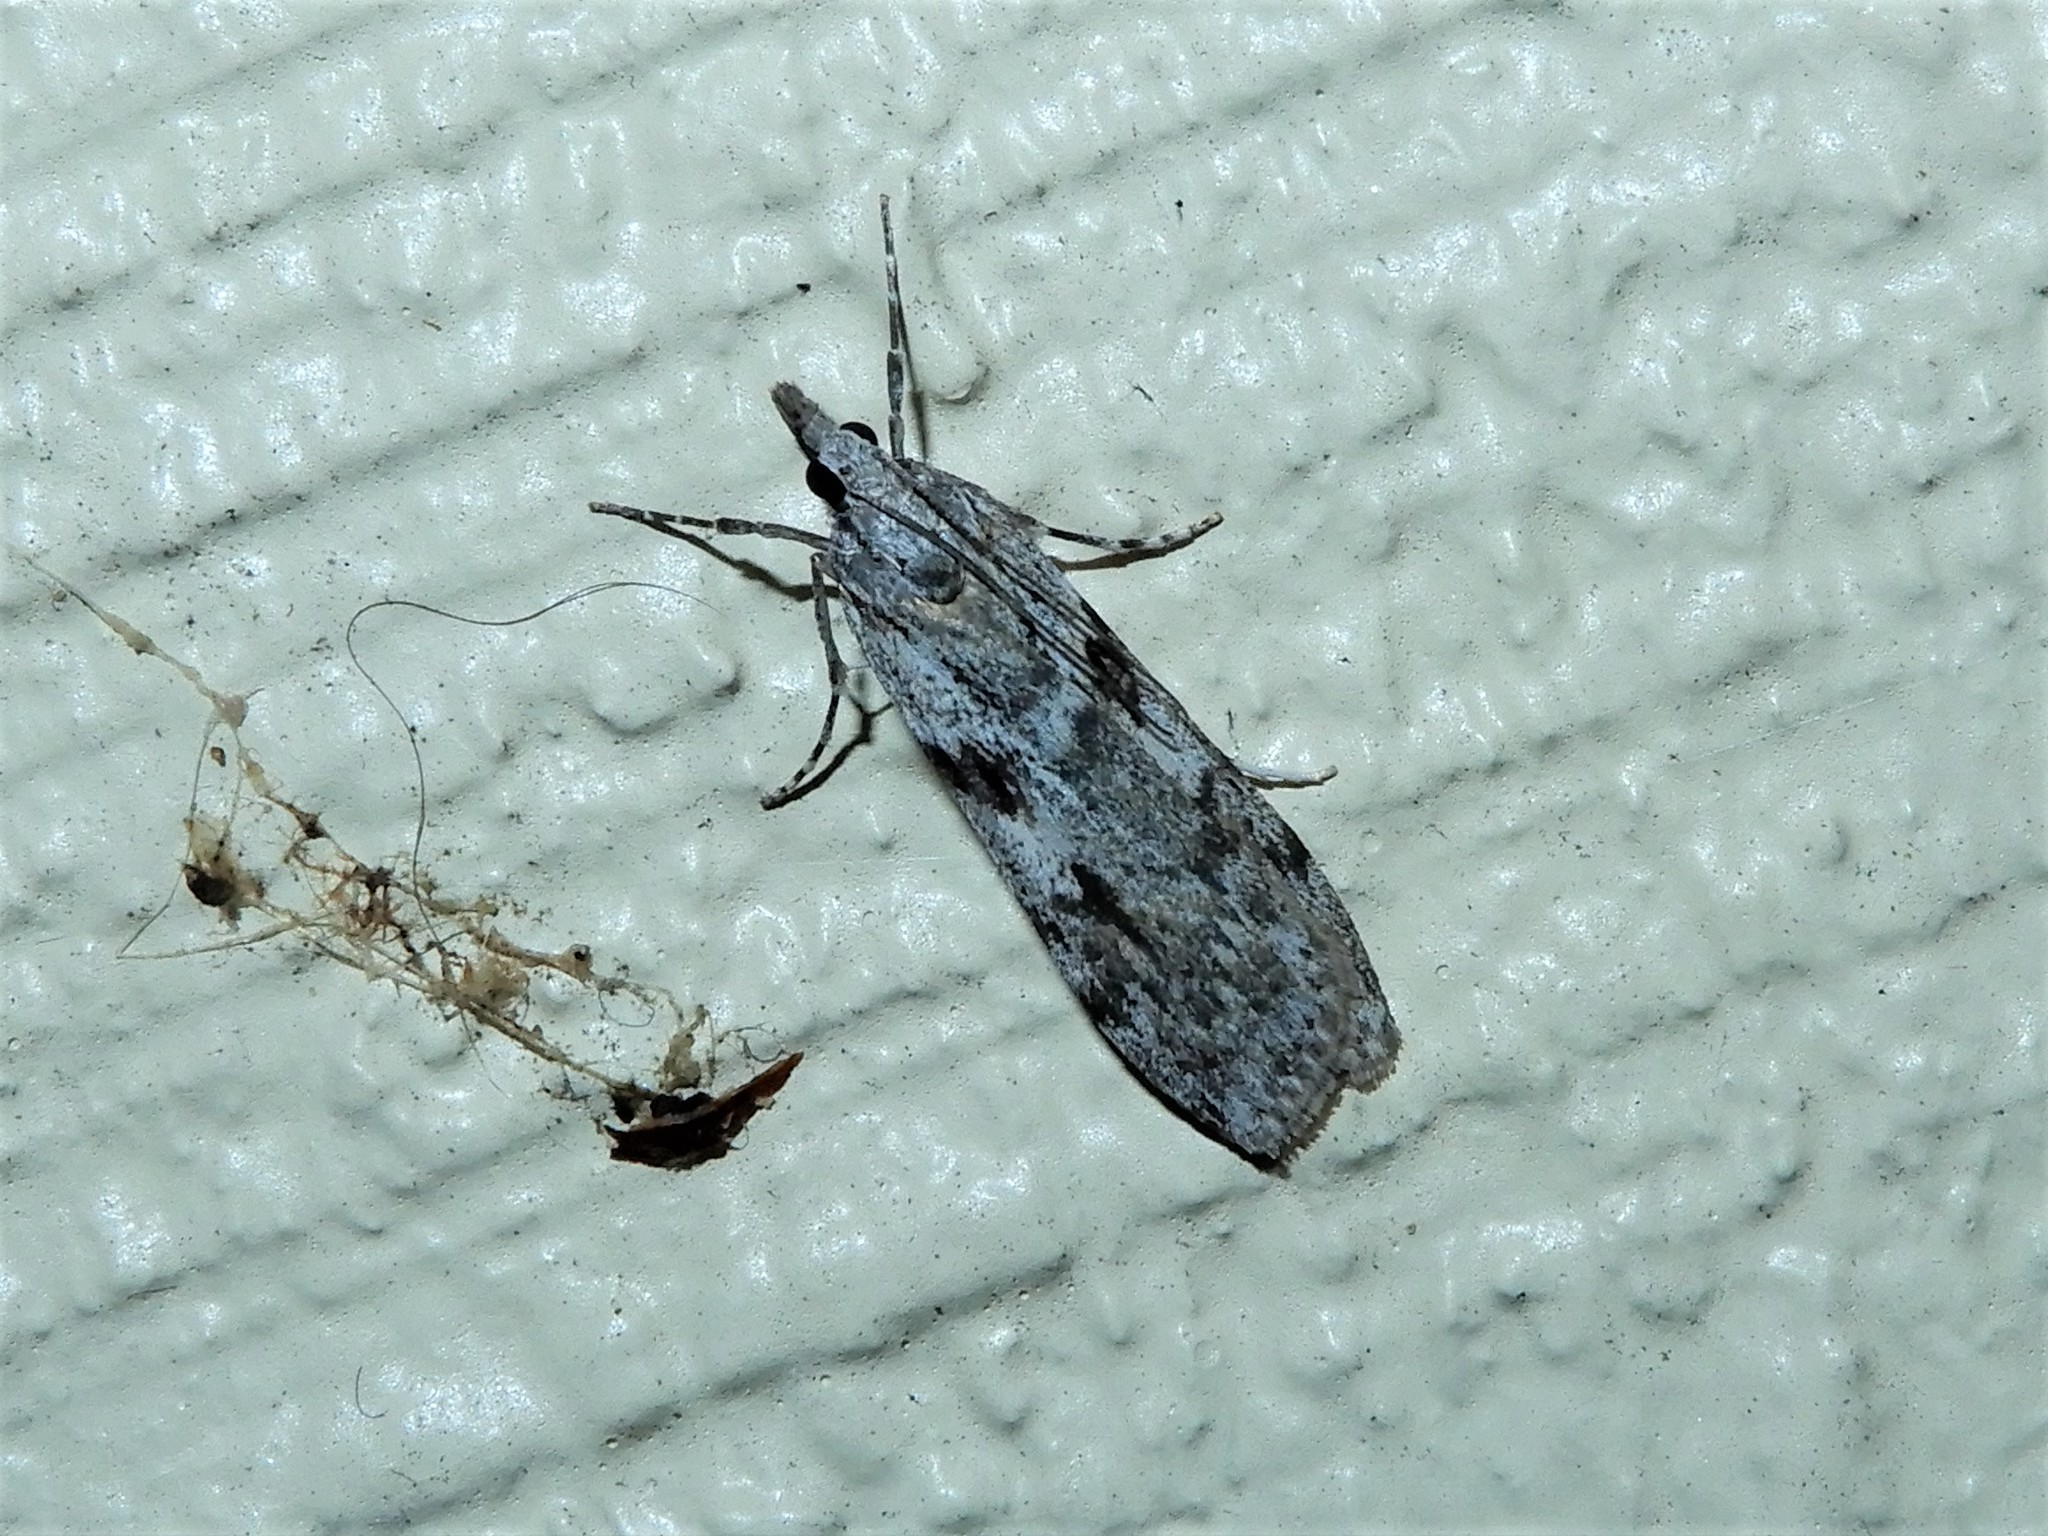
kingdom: Animalia
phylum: Arthropoda
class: Insecta
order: Lepidoptera
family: Crambidae
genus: Scoparia
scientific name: Scoparia halopis
